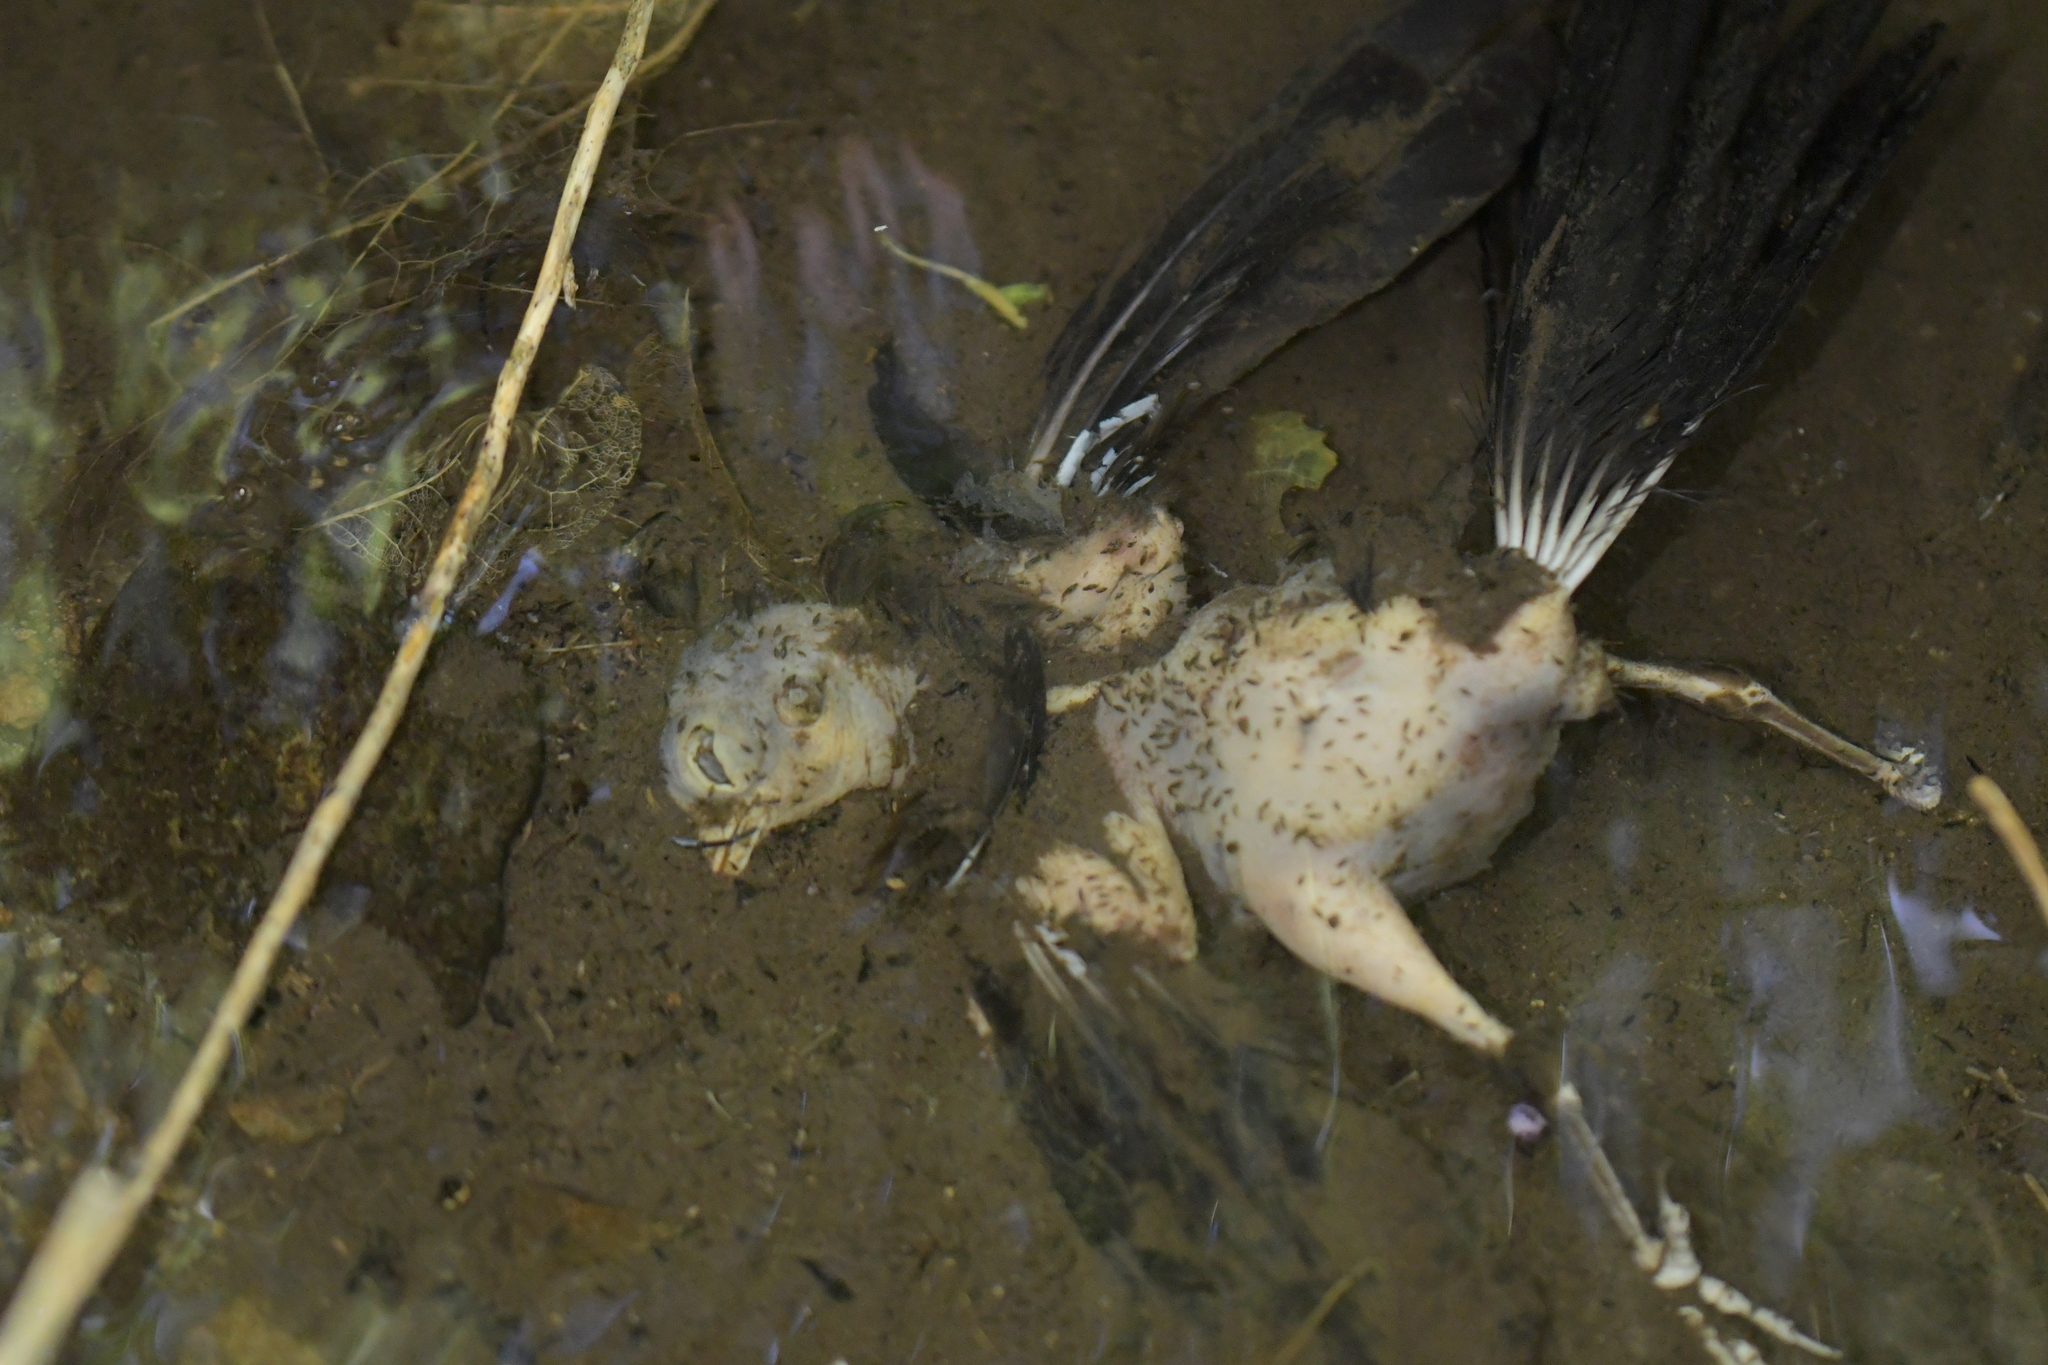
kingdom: Animalia
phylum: Chordata
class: Aves
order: Passeriformes
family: Turdidae
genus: Turdus
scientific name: Turdus merula
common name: Common blackbird
